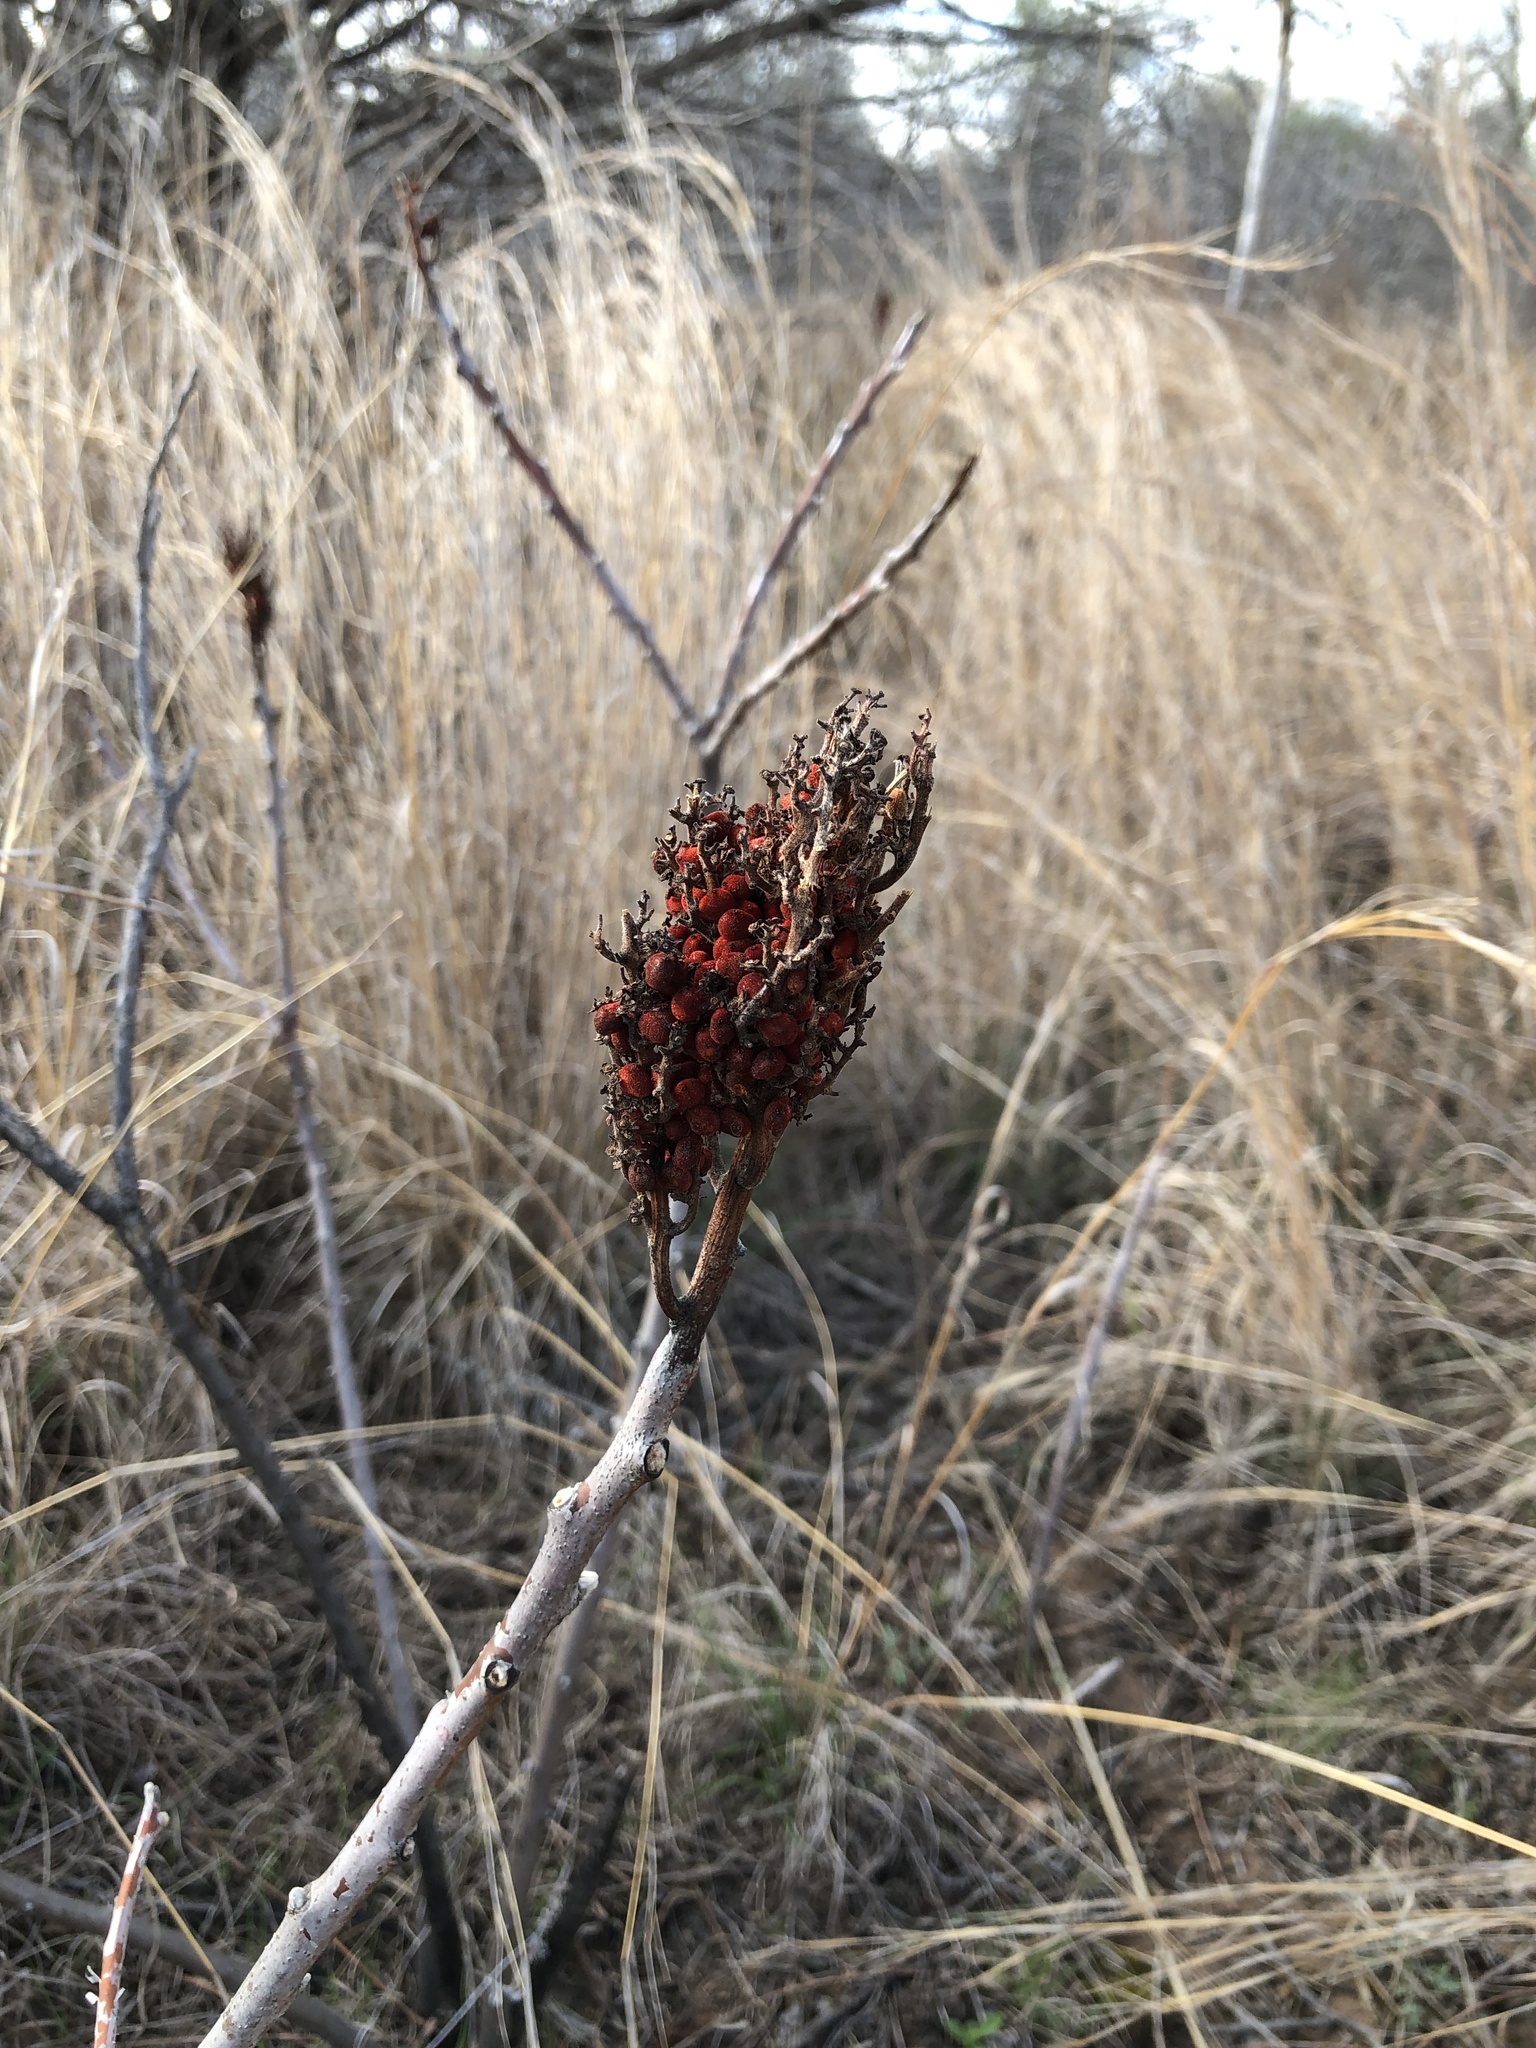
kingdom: Plantae
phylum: Tracheophyta
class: Magnoliopsida
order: Sapindales
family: Anacardiaceae
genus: Rhus
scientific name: Rhus glabra
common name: Scarlet sumac
